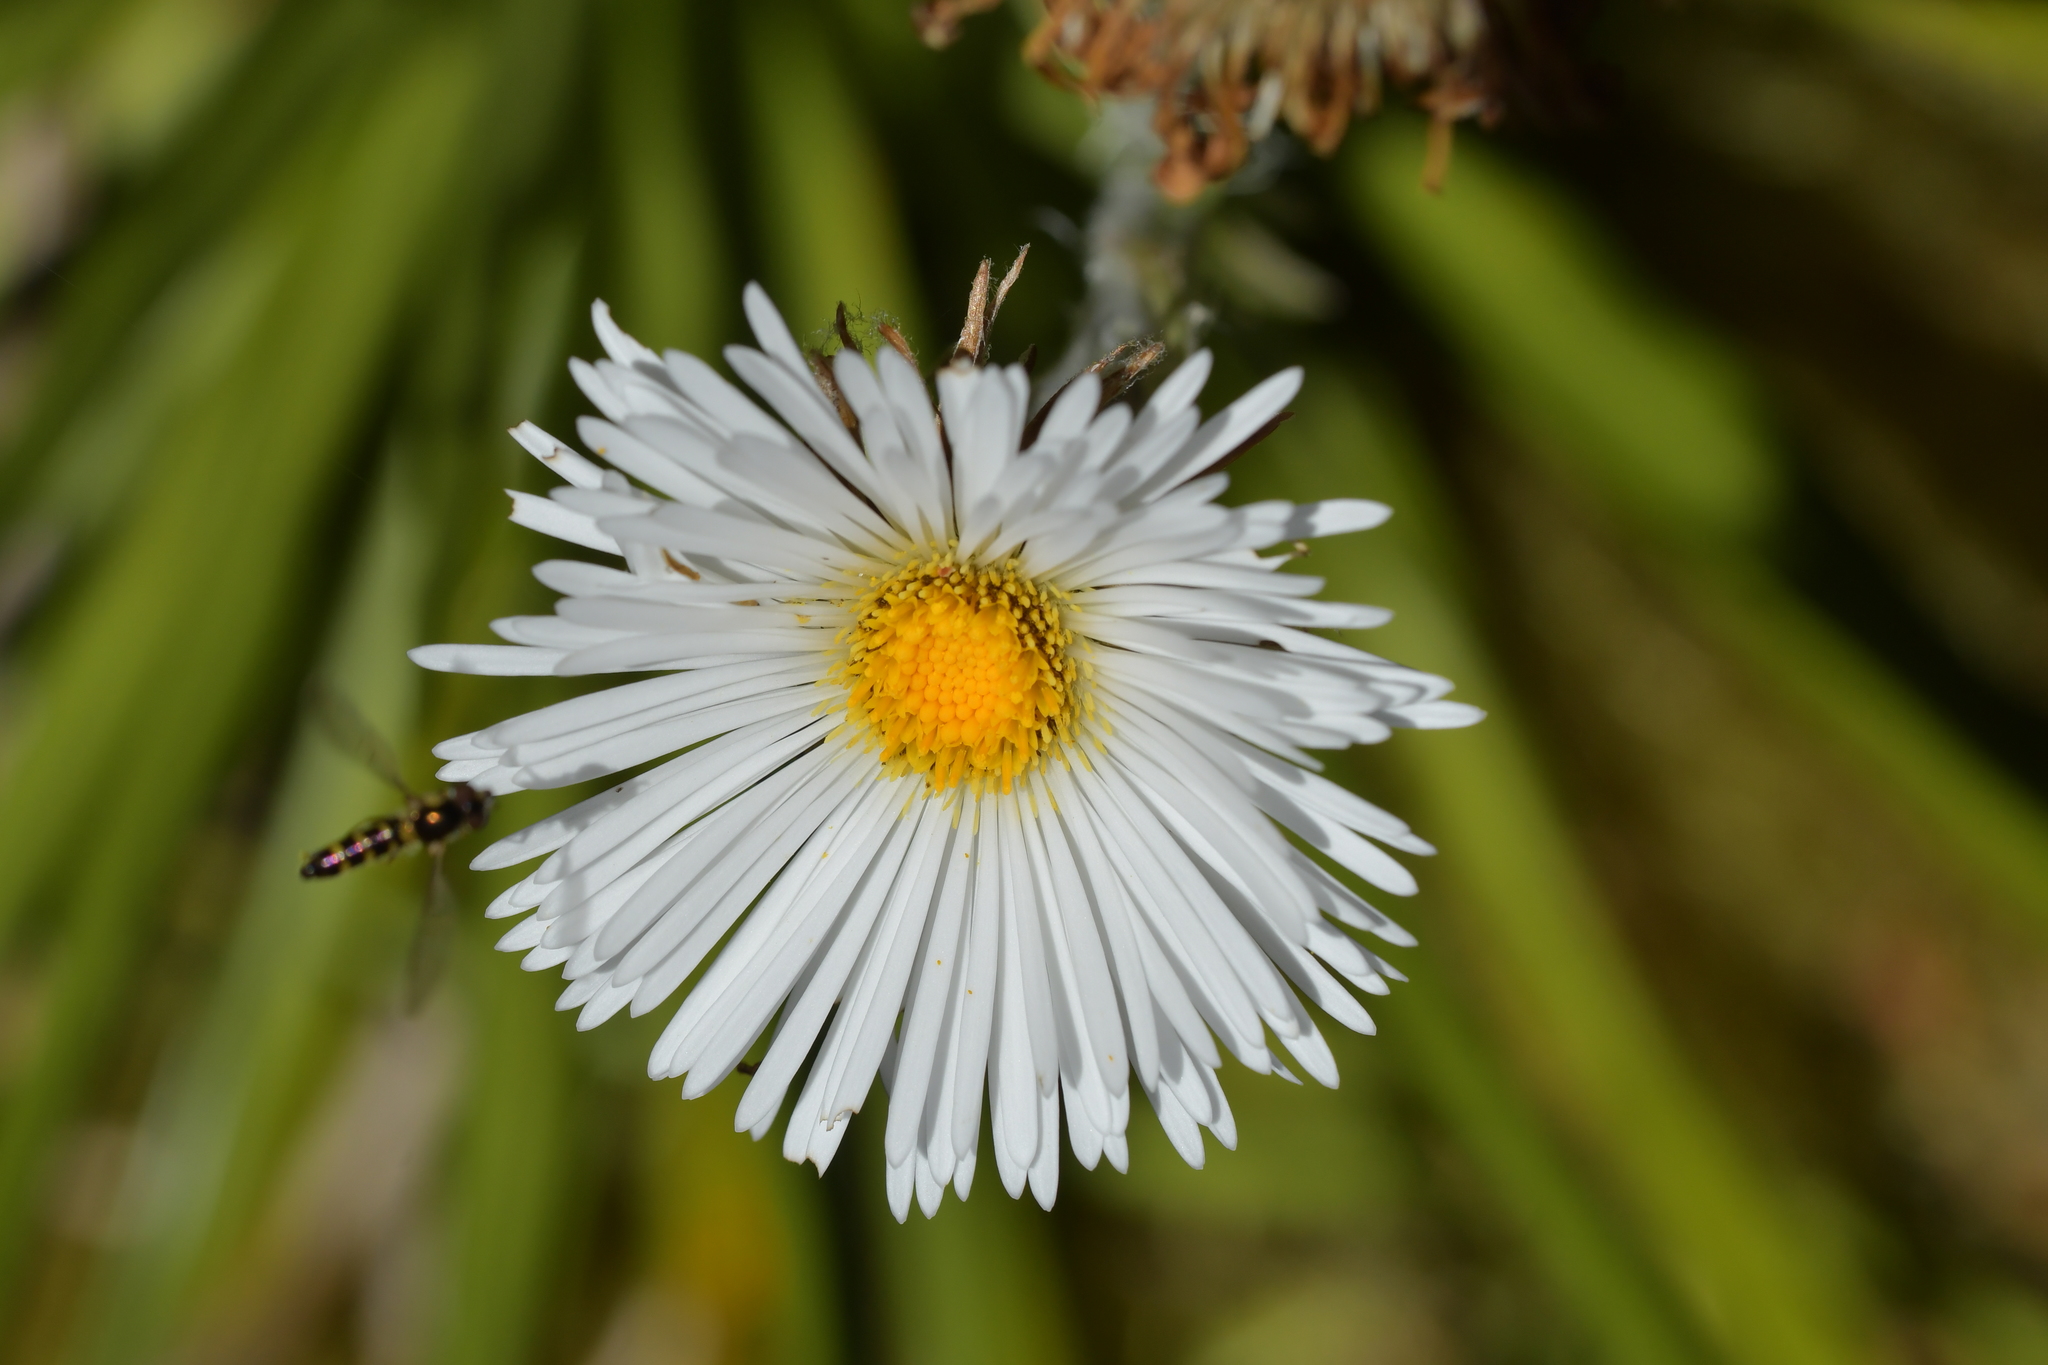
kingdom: Plantae
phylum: Tracheophyta
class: Magnoliopsida
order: Asterales
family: Asteraceae
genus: Celmisia
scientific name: Celmisia petriei
